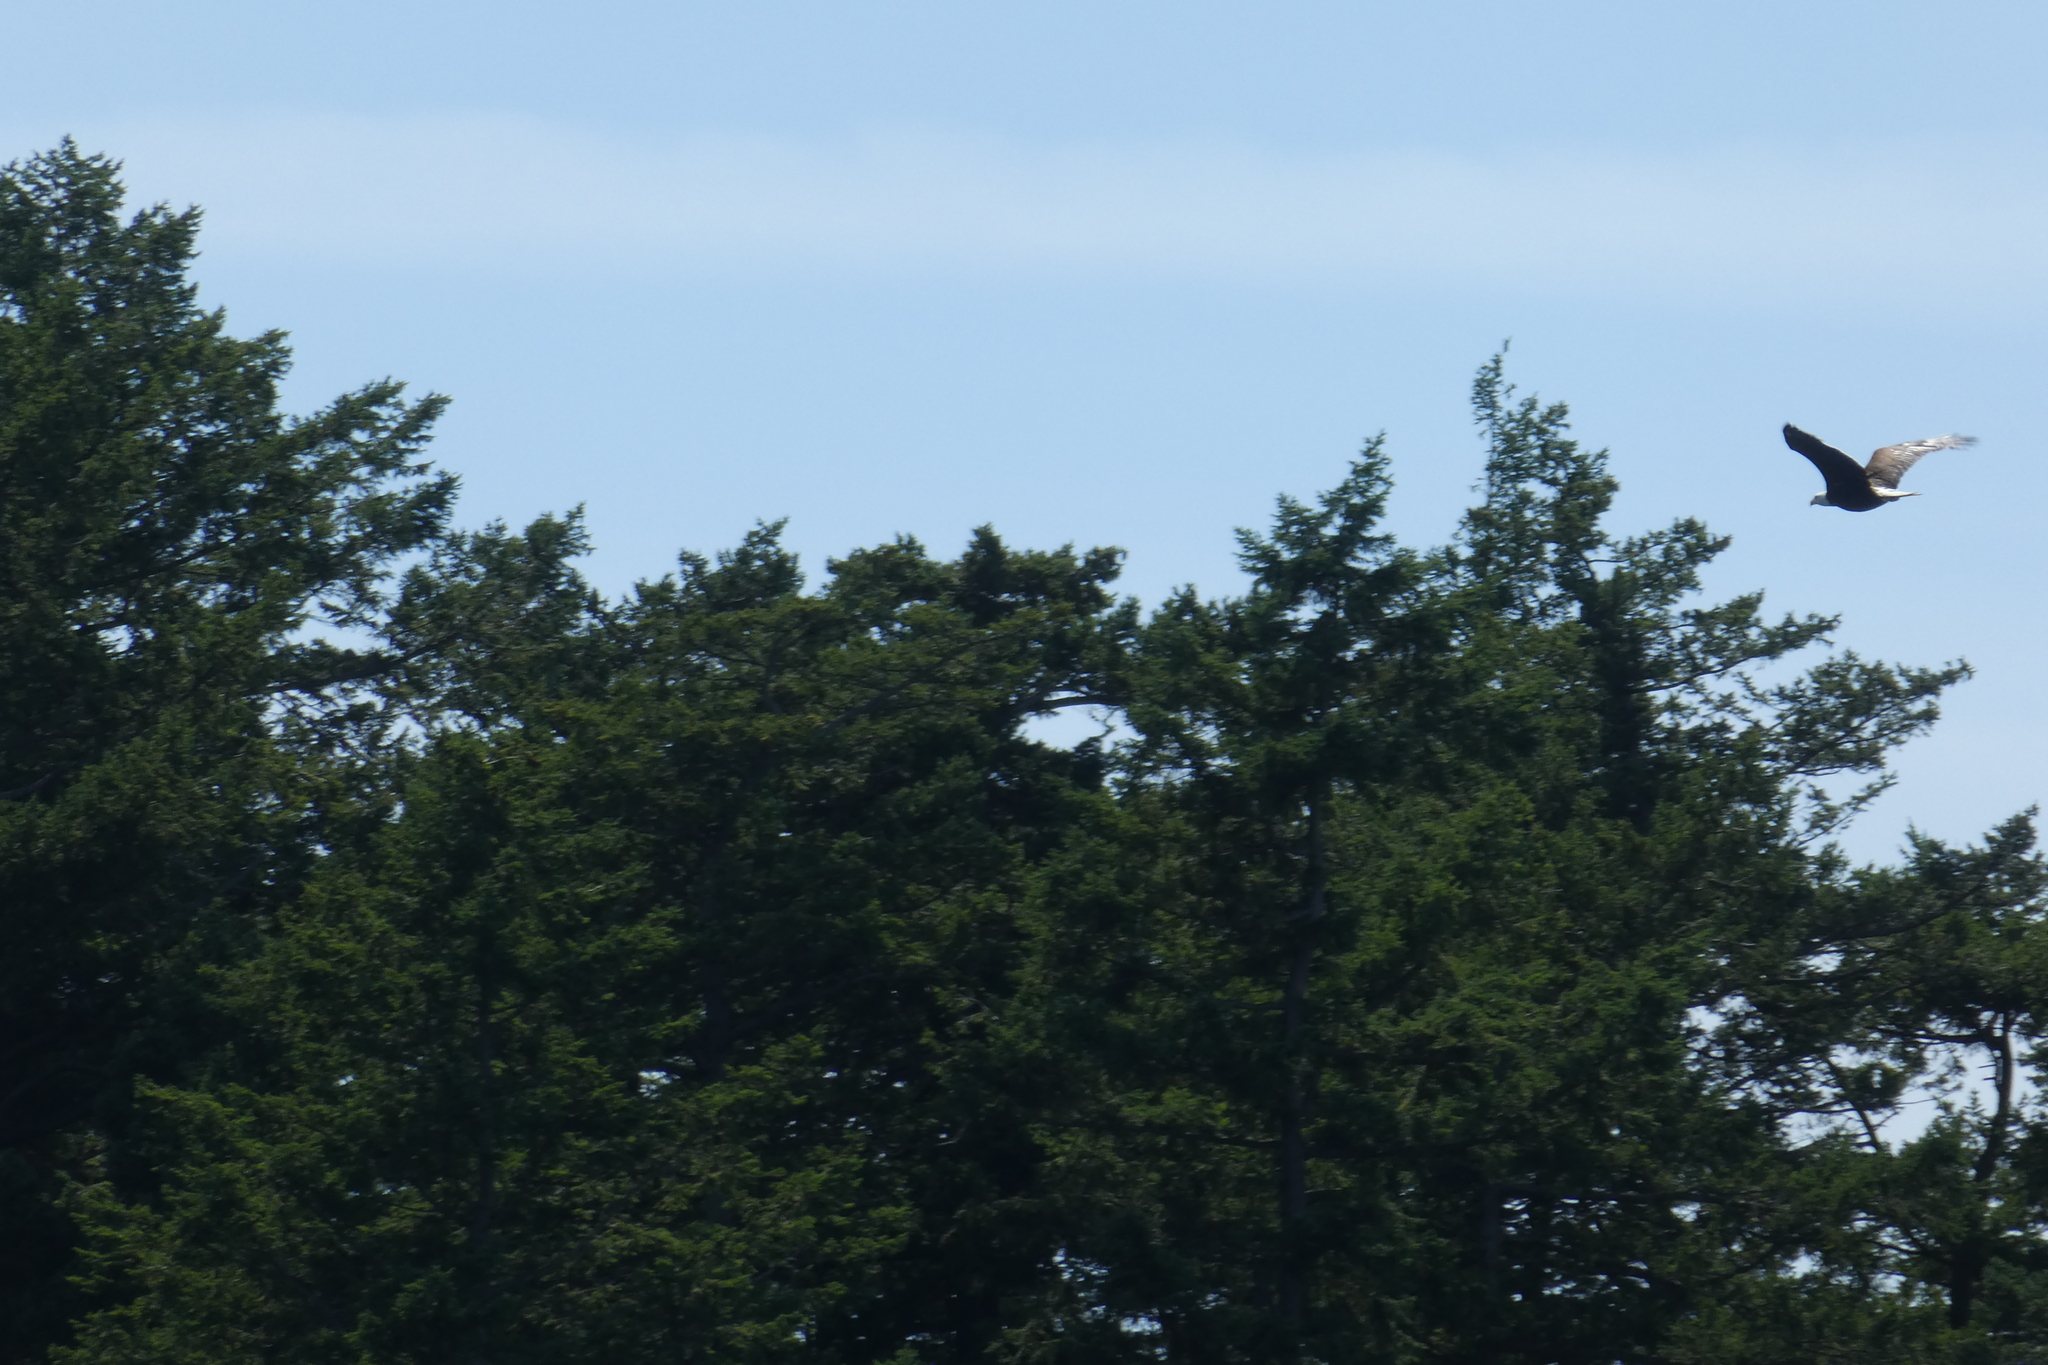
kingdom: Animalia
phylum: Chordata
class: Aves
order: Accipitriformes
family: Accipitridae
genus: Haliaeetus
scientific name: Haliaeetus leucocephalus
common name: Bald eagle
